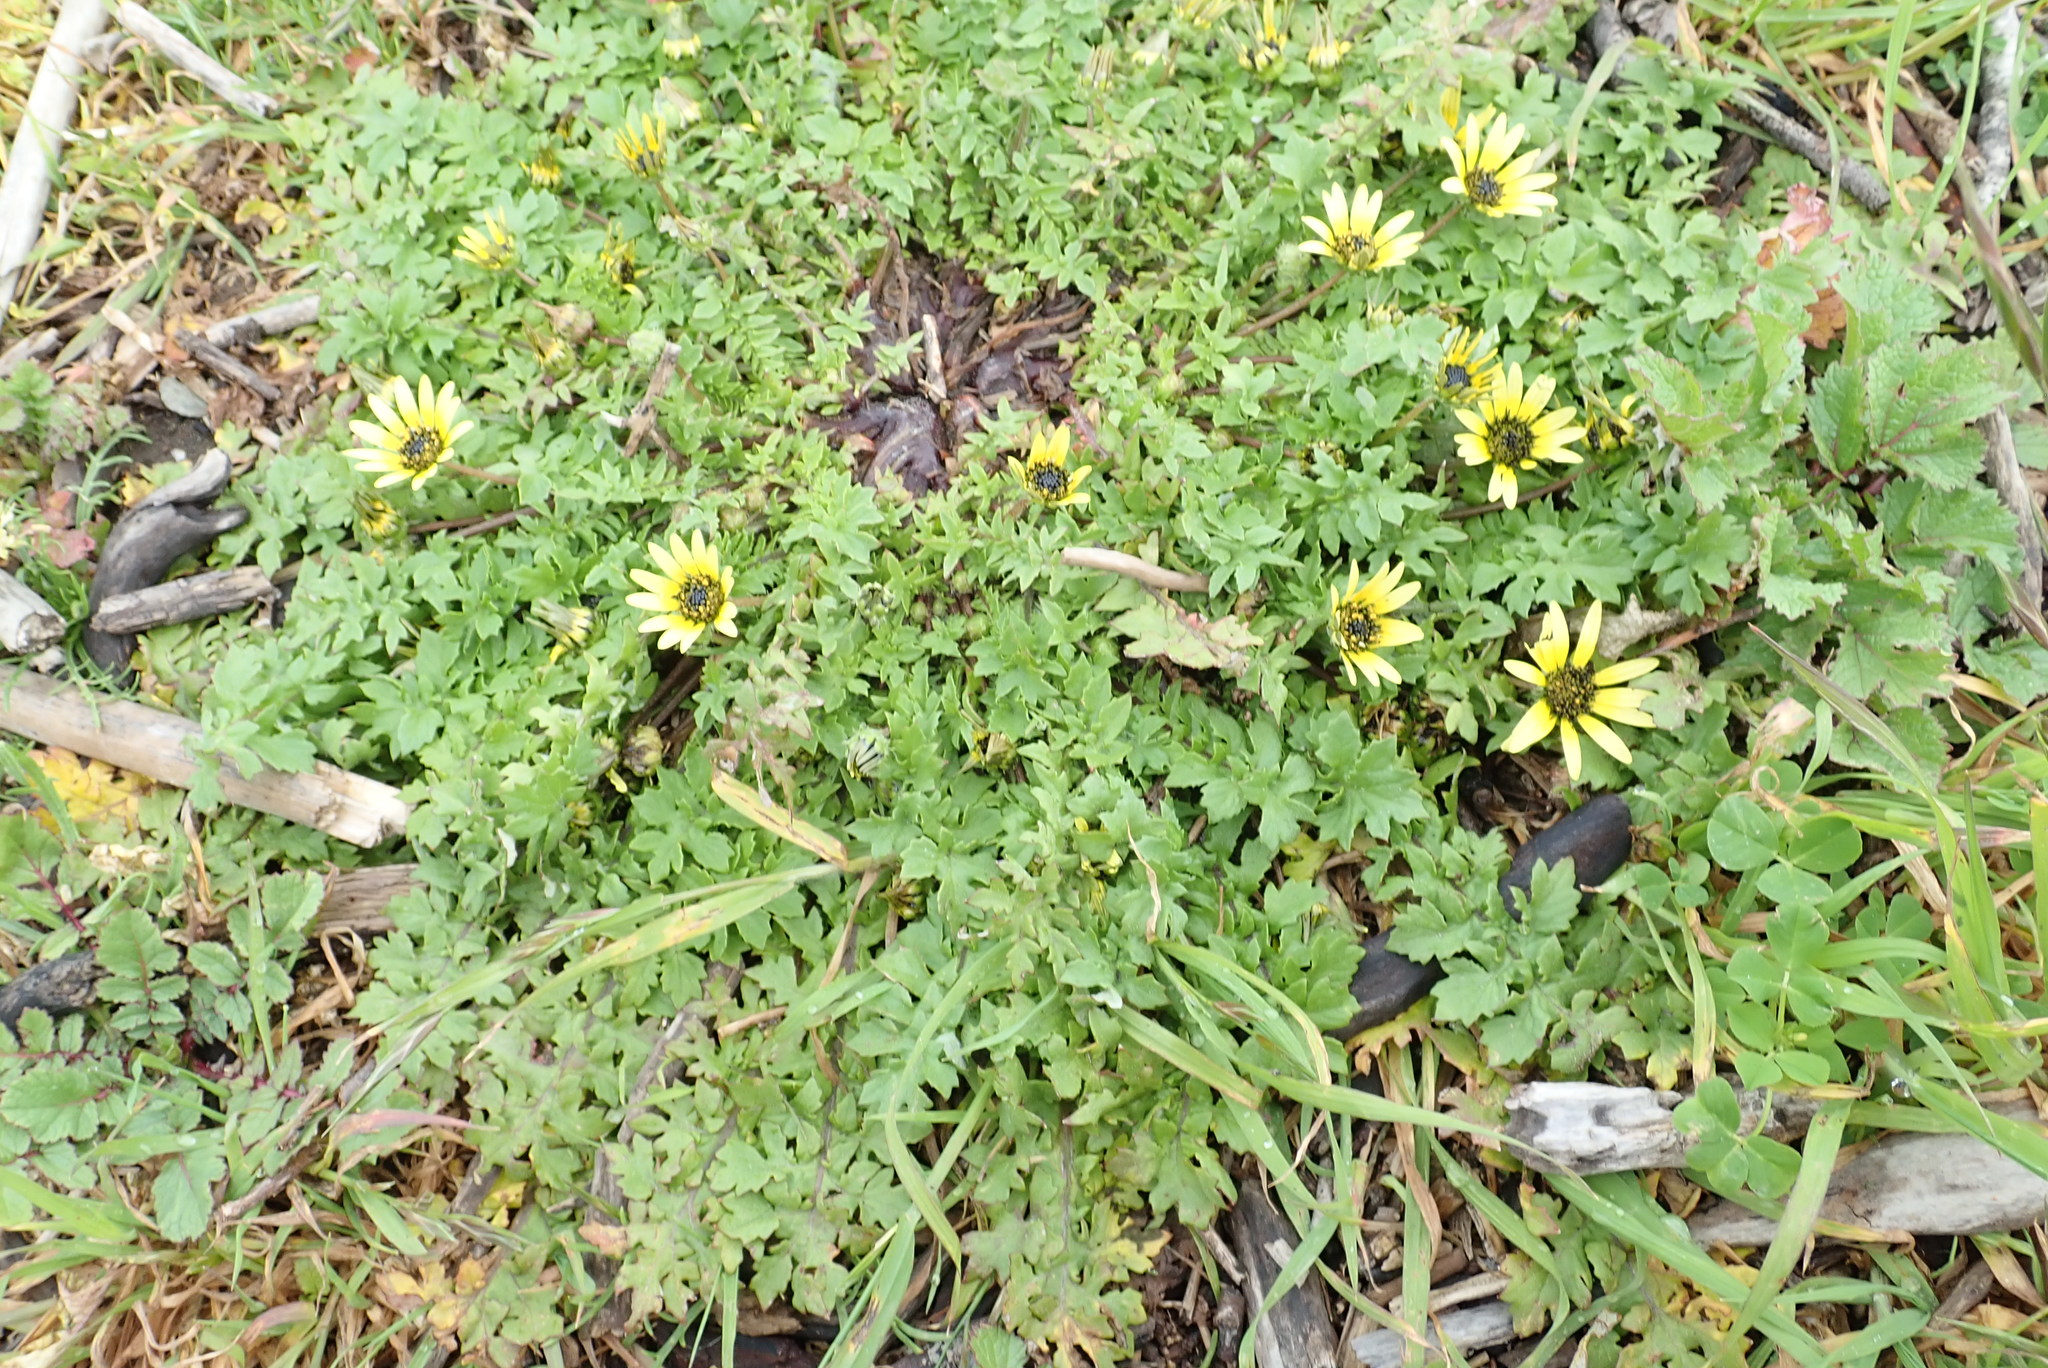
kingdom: Plantae
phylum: Tracheophyta
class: Magnoliopsida
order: Asterales
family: Asteraceae
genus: Arctotheca
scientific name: Arctotheca calendula
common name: Capeweed
